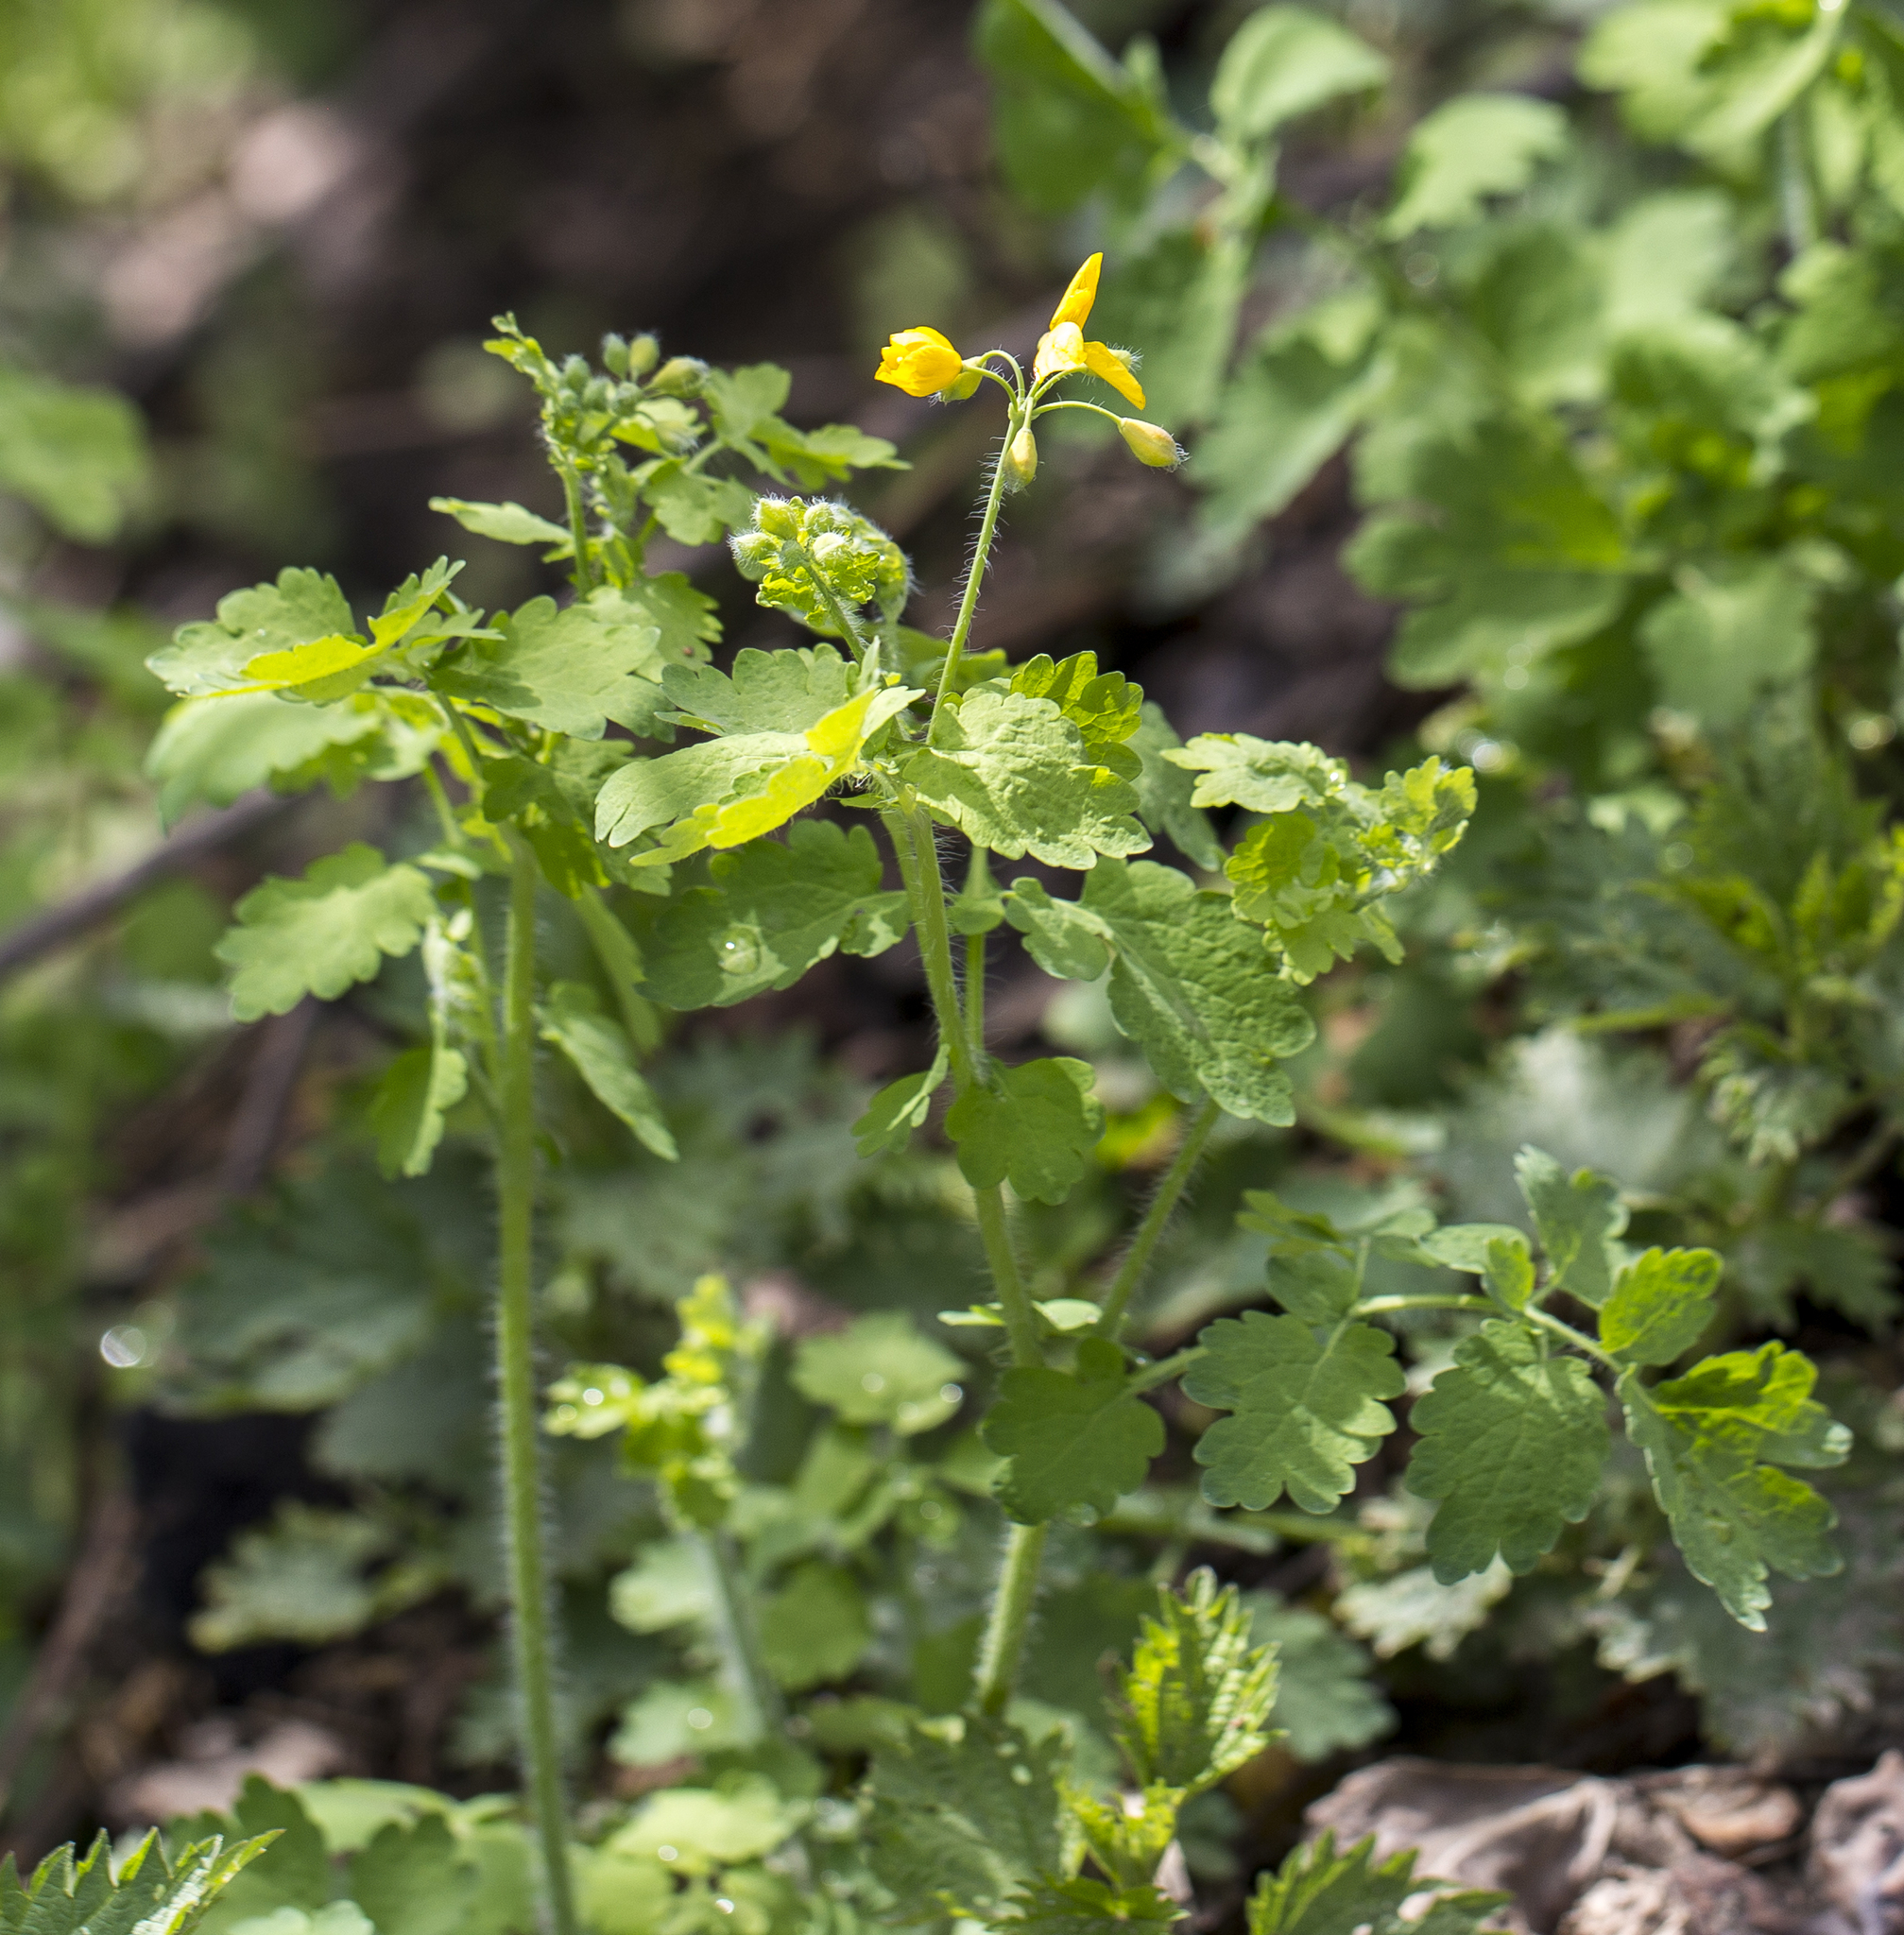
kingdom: Plantae
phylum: Tracheophyta
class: Magnoliopsida
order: Ranunculales
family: Papaveraceae
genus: Chelidonium
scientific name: Chelidonium majus
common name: Greater celandine
